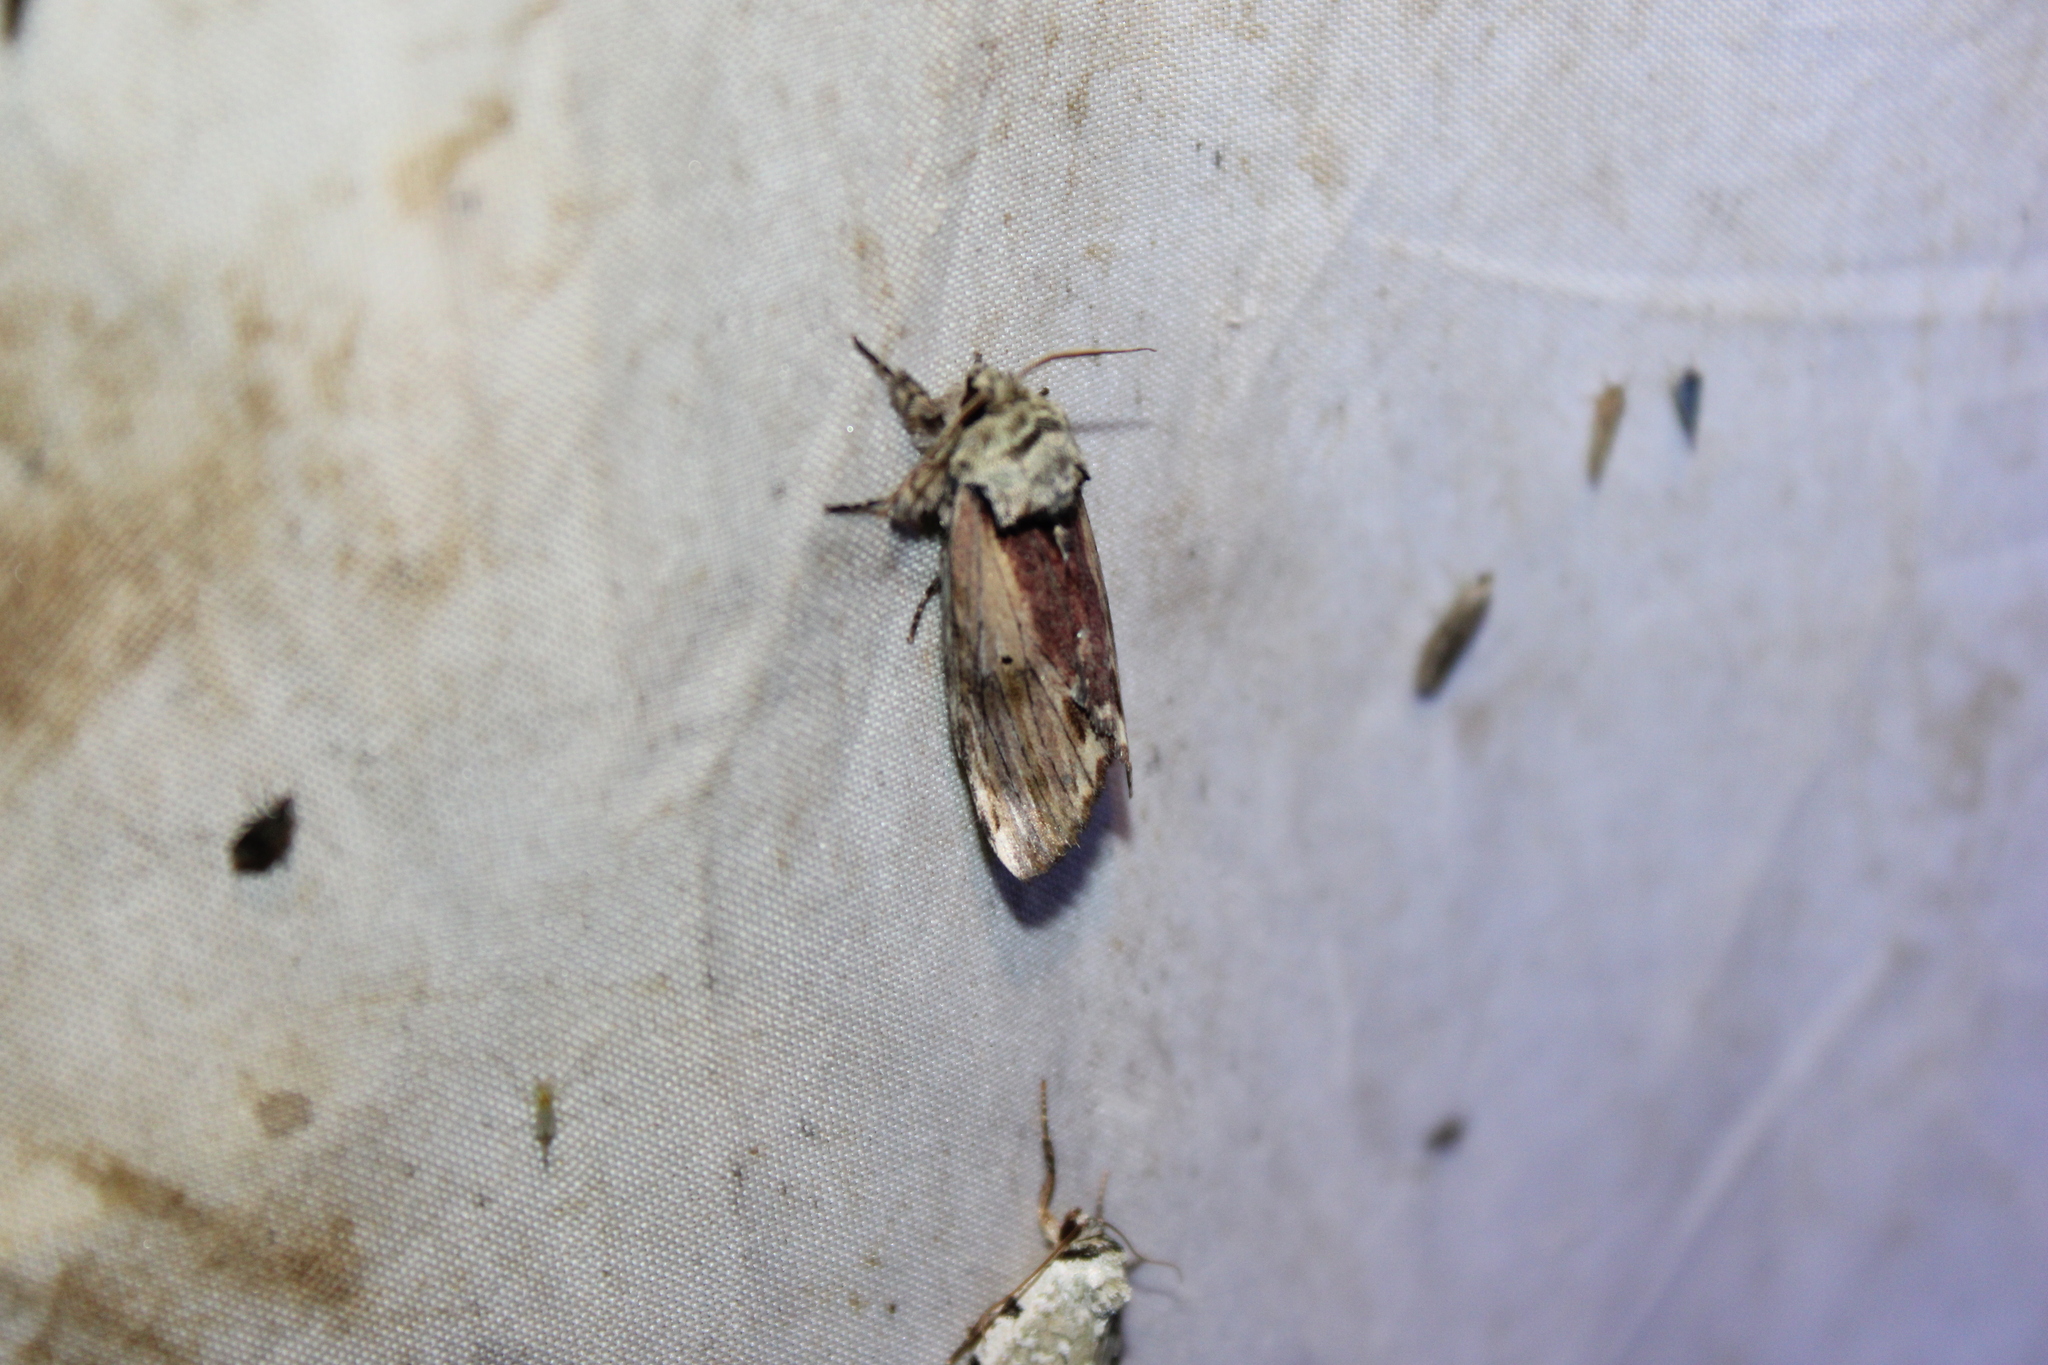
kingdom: Animalia
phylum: Arthropoda
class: Insecta
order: Lepidoptera
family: Notodontidae
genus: Schizura
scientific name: Schizura
